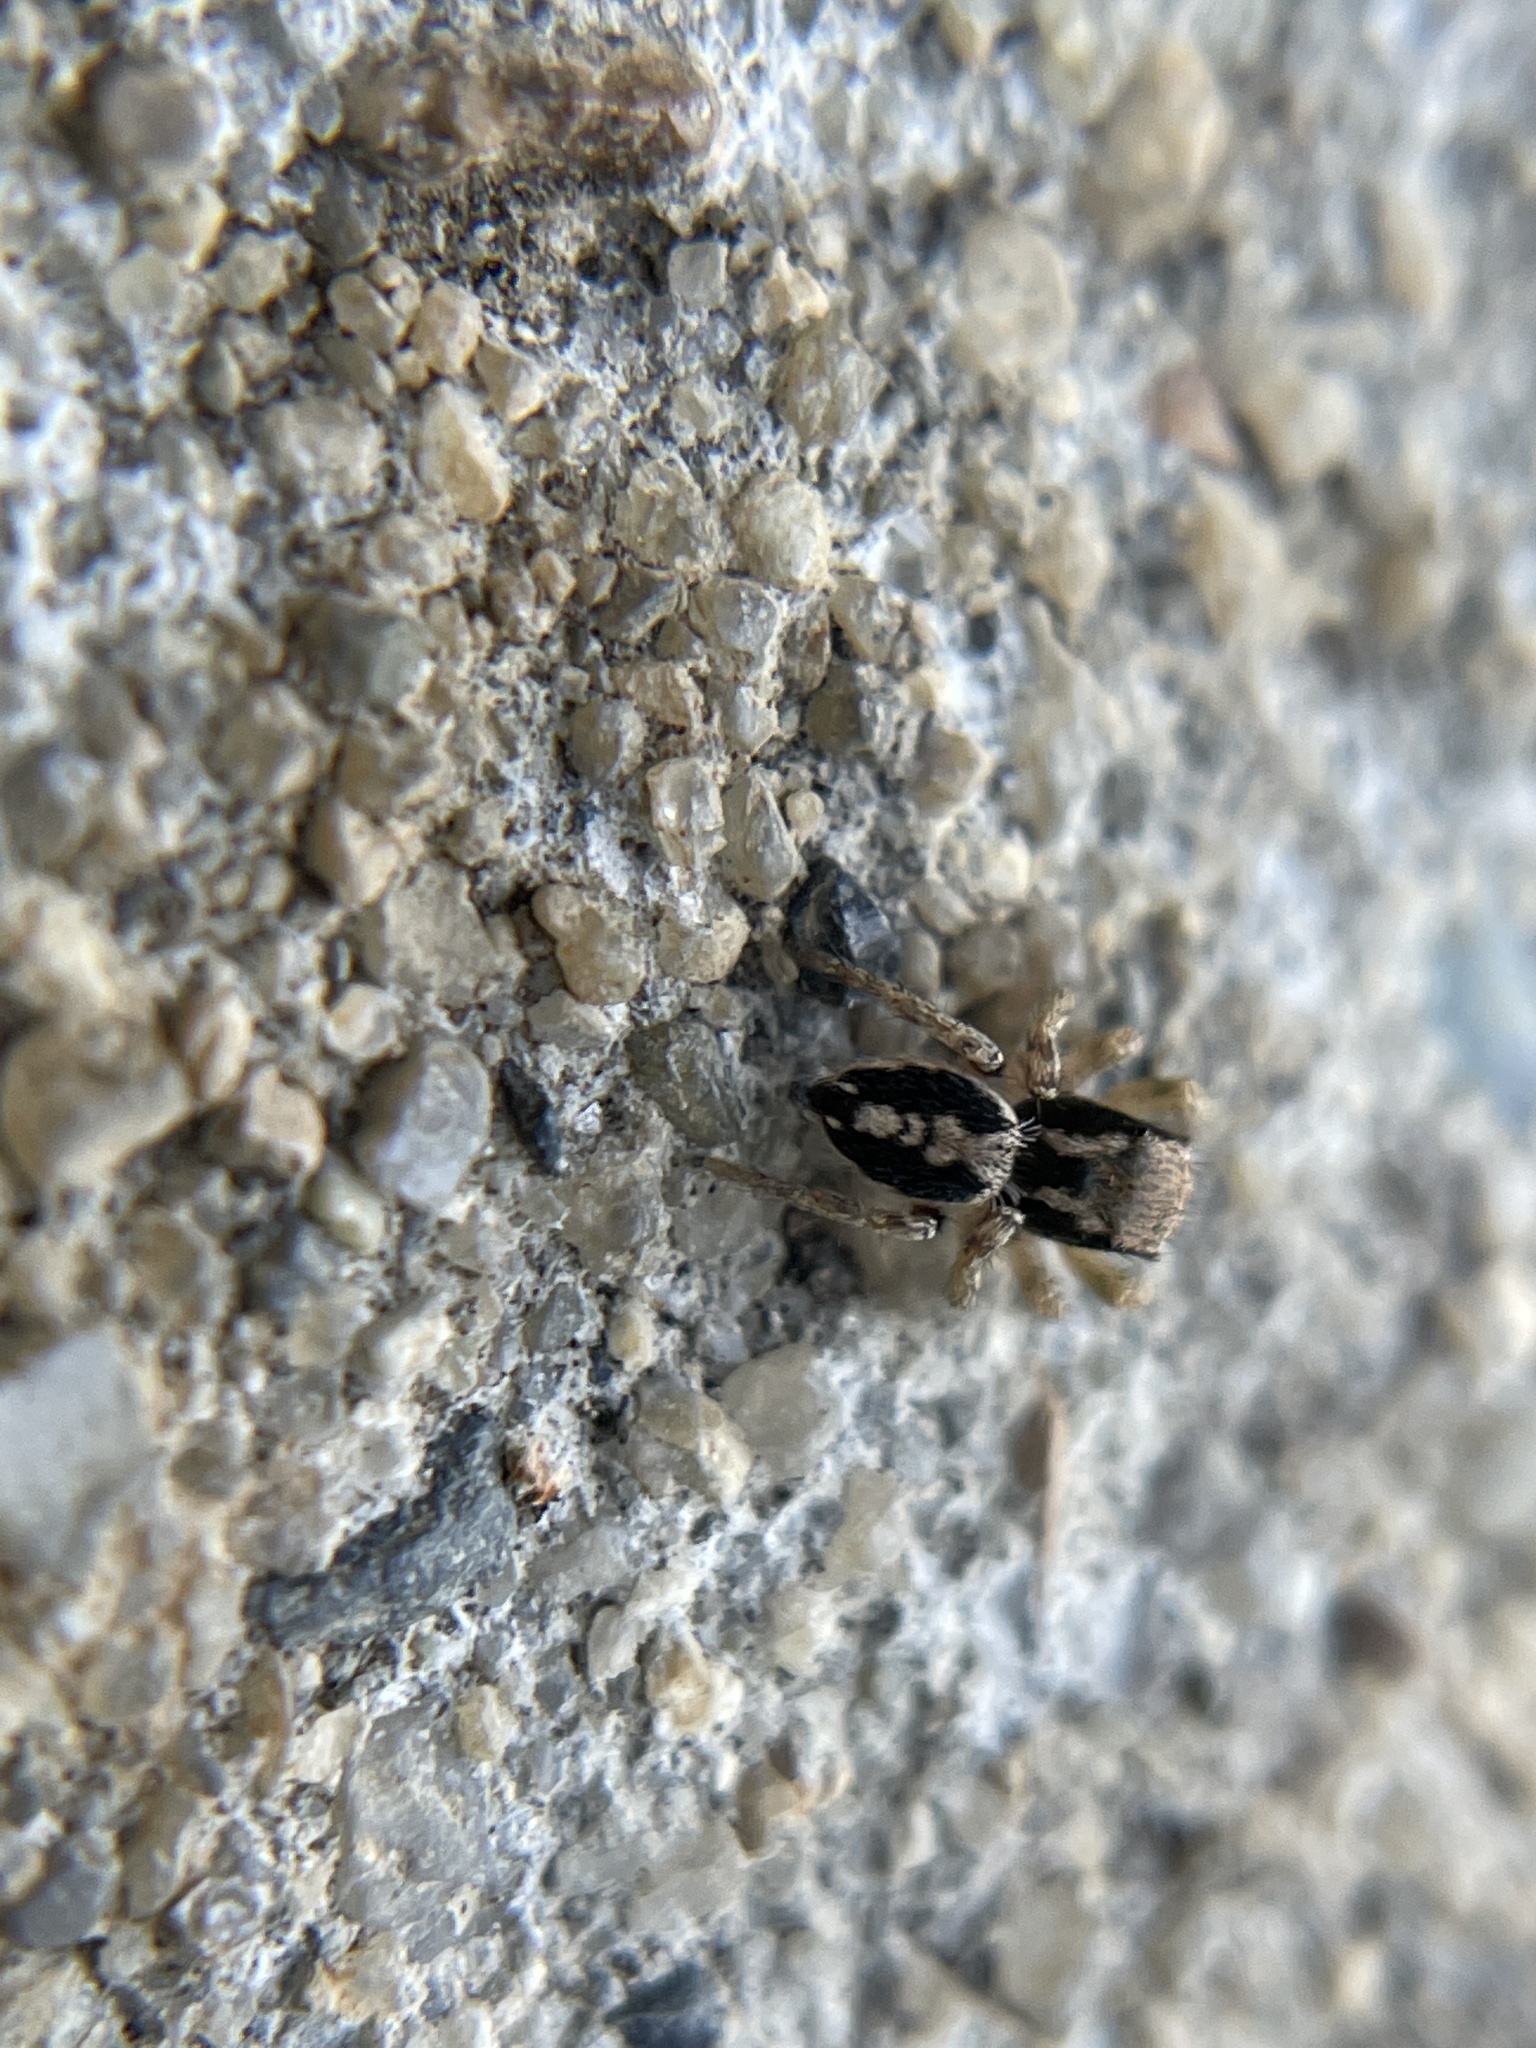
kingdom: Animalia
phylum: Arthropoda
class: Arachnida
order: Araneae
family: Salticidae
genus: Habronattus
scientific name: Habronattus pyrrithrix
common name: Jumping spider
